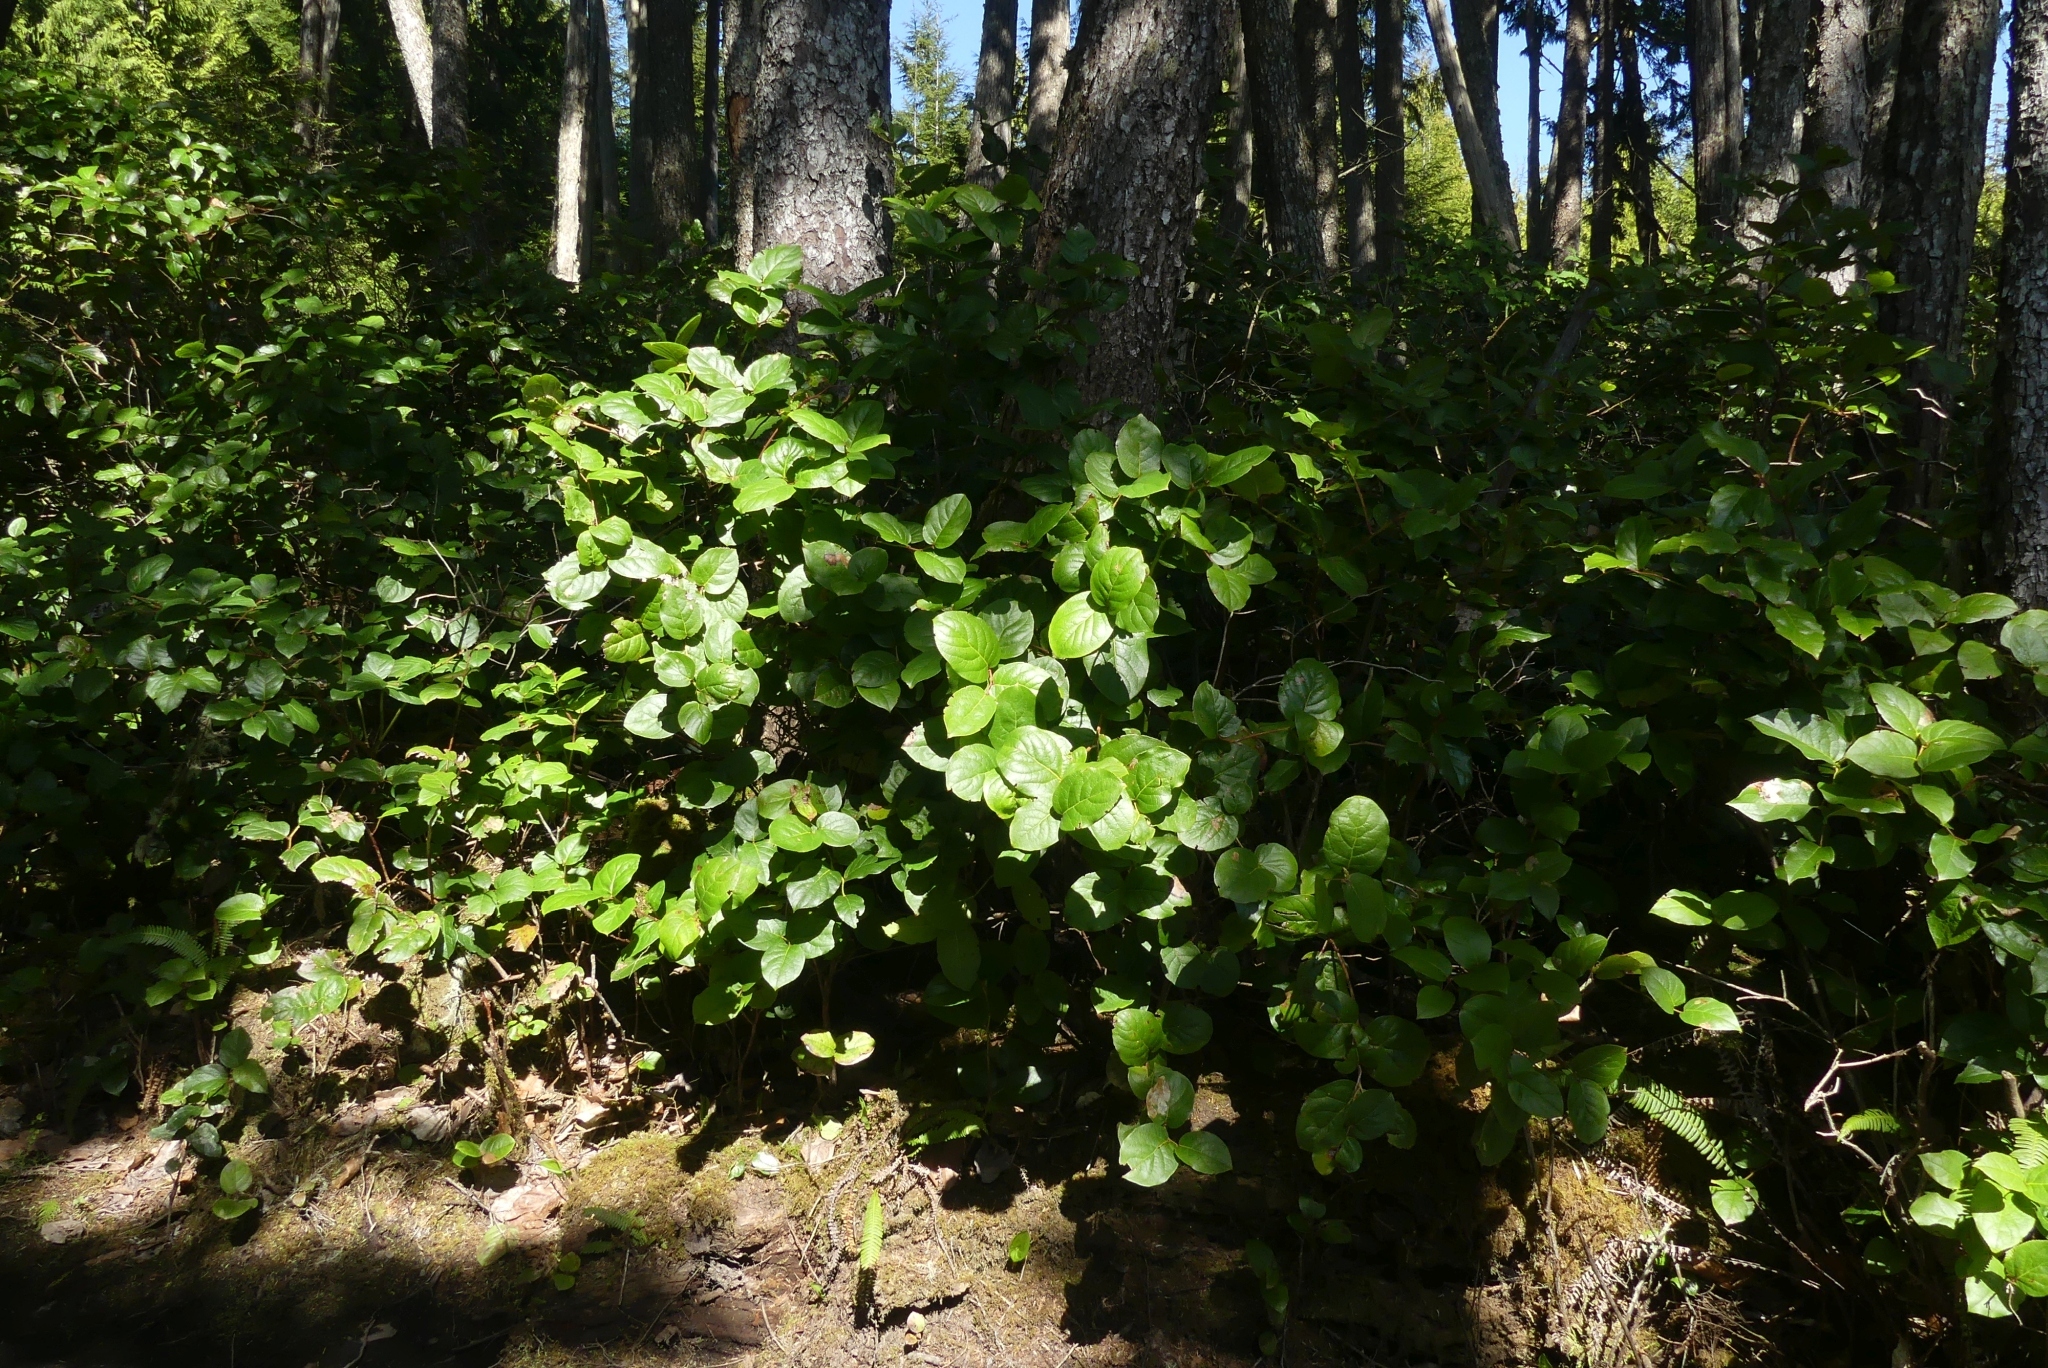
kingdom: Plantae
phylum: Tracheophyta
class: Magnoliopsida
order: Ericales
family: Ericaceae
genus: Gaultheria
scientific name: Gaultheria shallon
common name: Shallon
